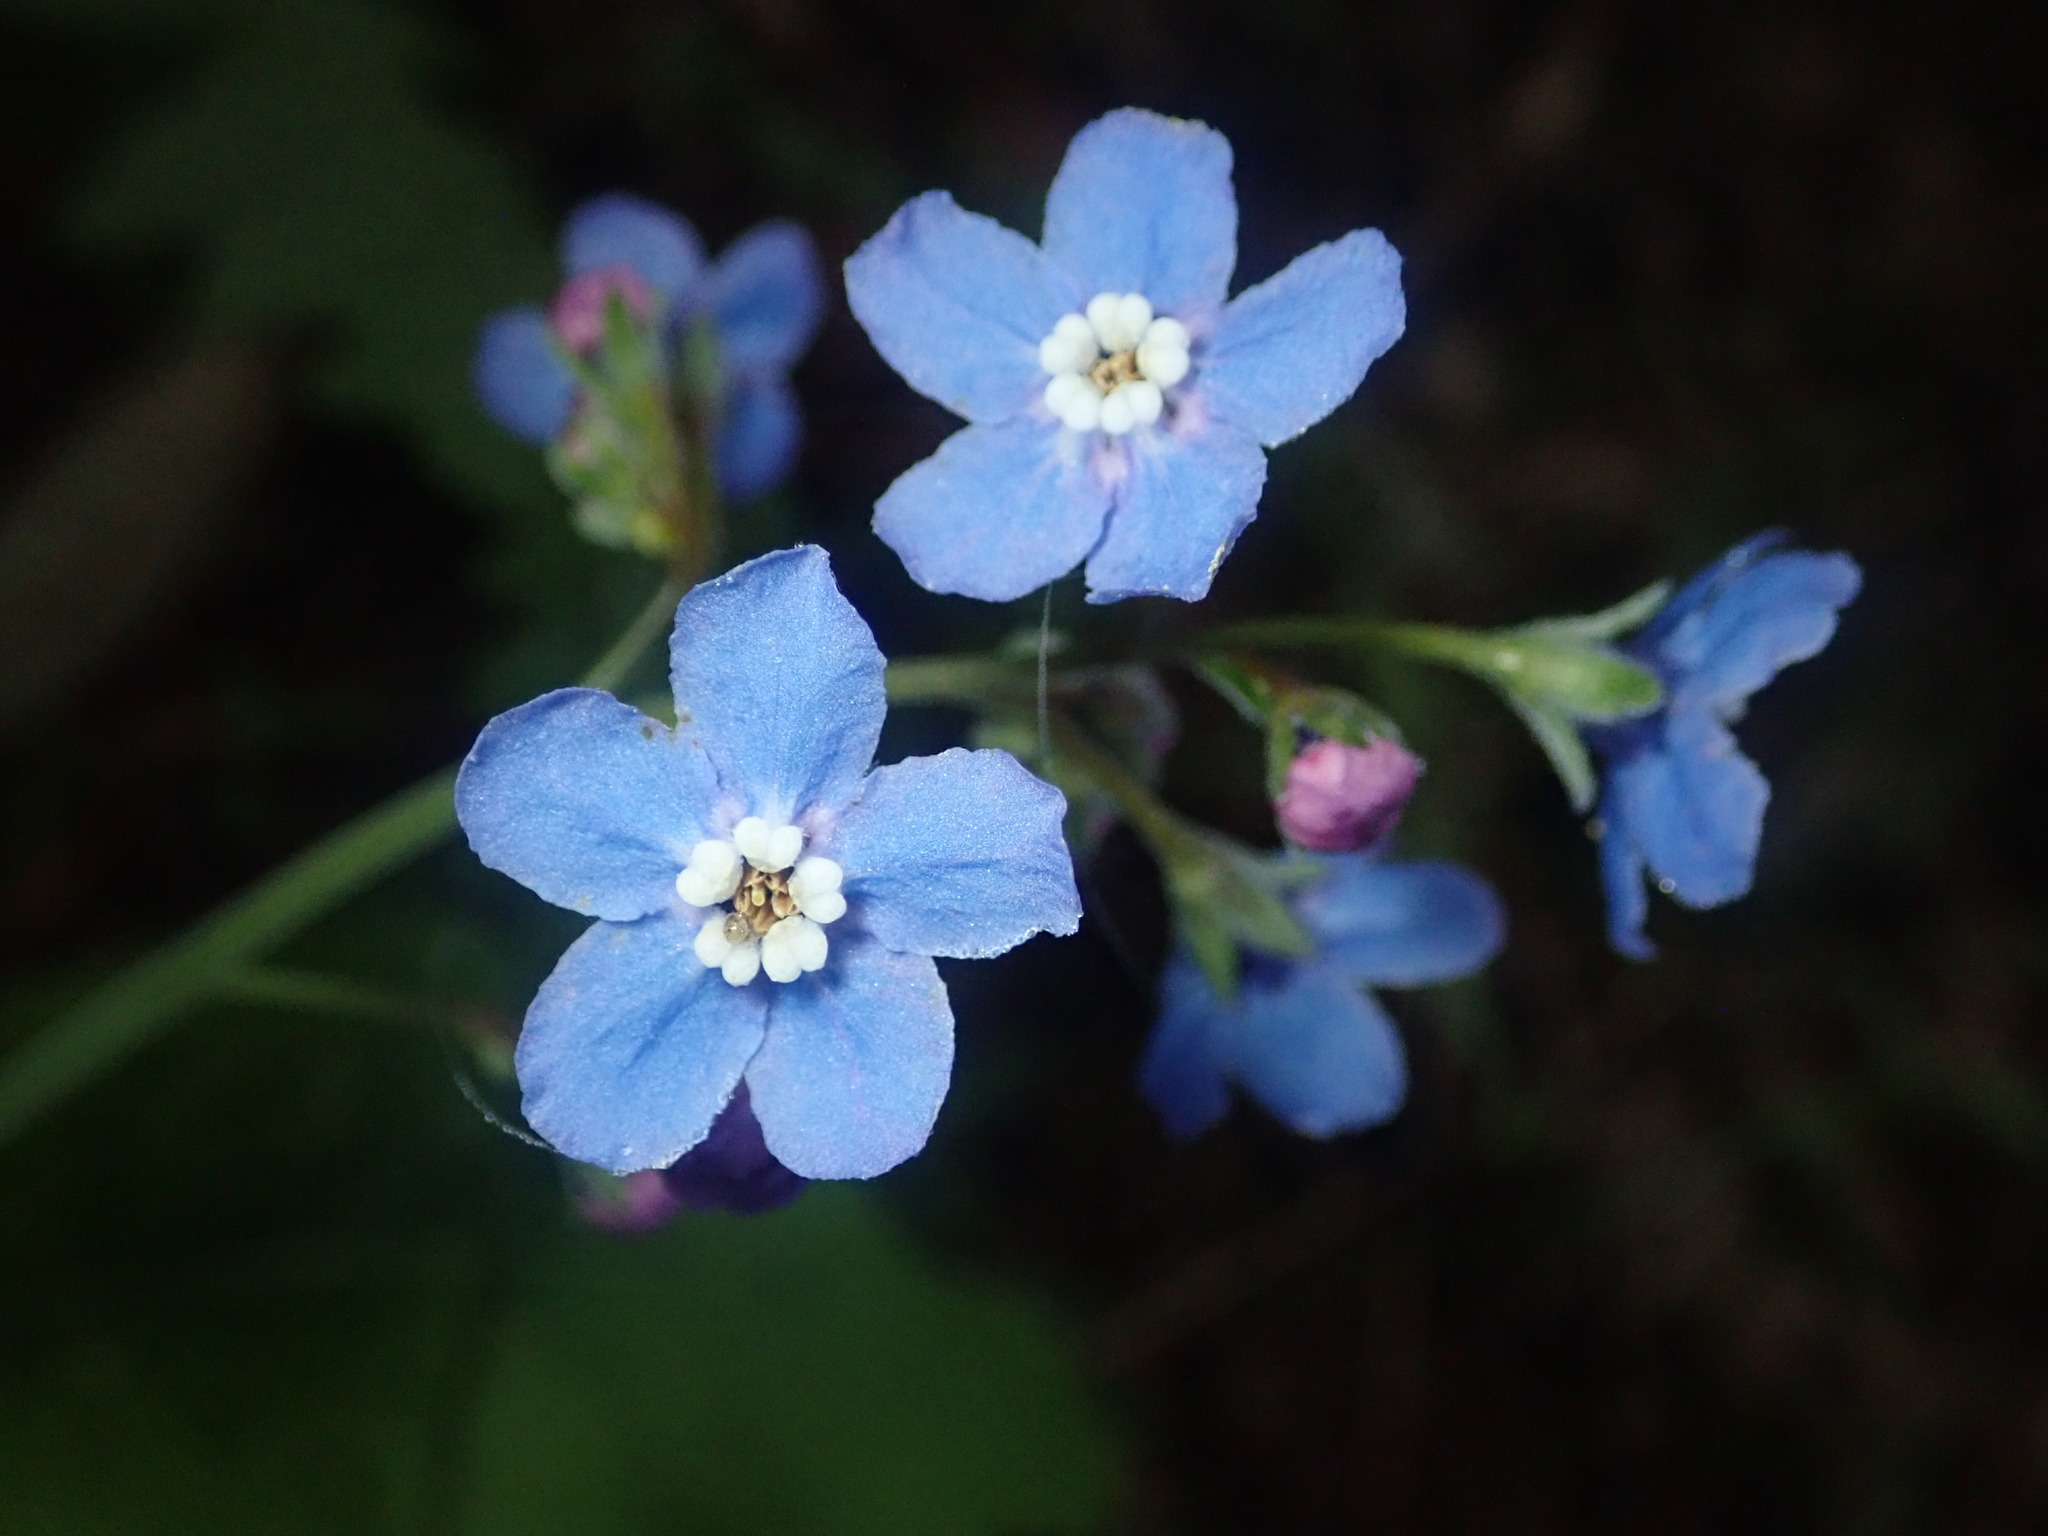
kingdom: Plantae
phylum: Tracheophyta
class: Magnoliopsida
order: Boraginales
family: Boraginaceae
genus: Adelinia
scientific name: Adelinia grande
